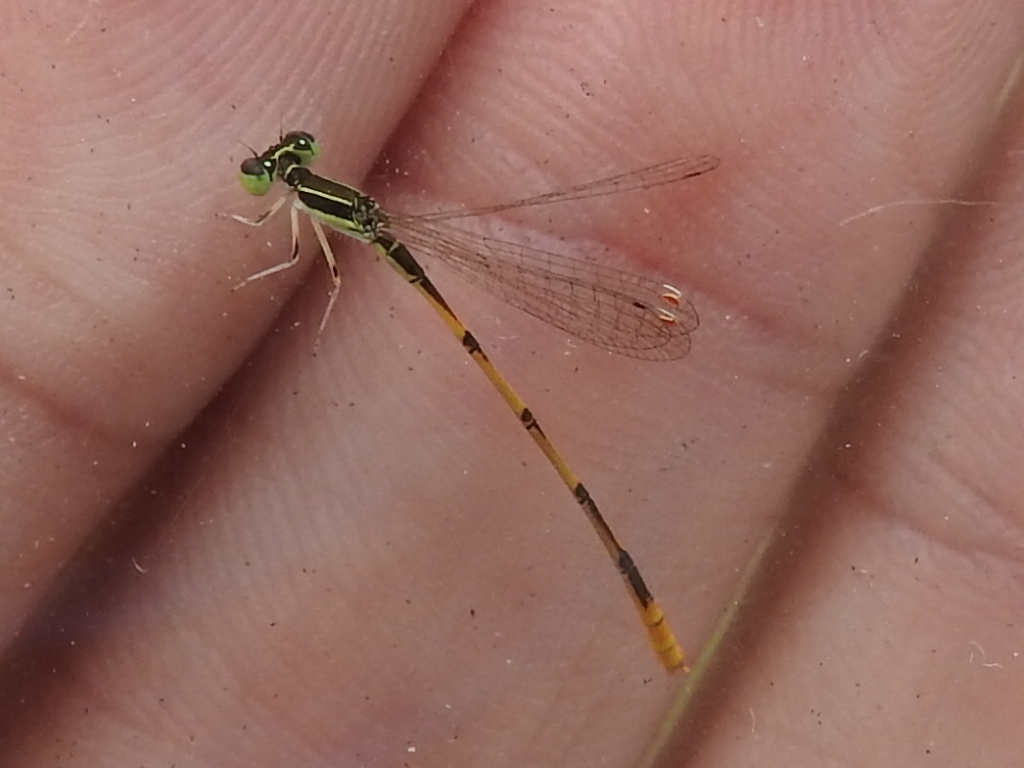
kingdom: Animalia
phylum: Arthropoda
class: Insecta
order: Odonata
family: Coenagrionidae
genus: Ischnura
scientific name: Ischnura hastata
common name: Citrine forktail
